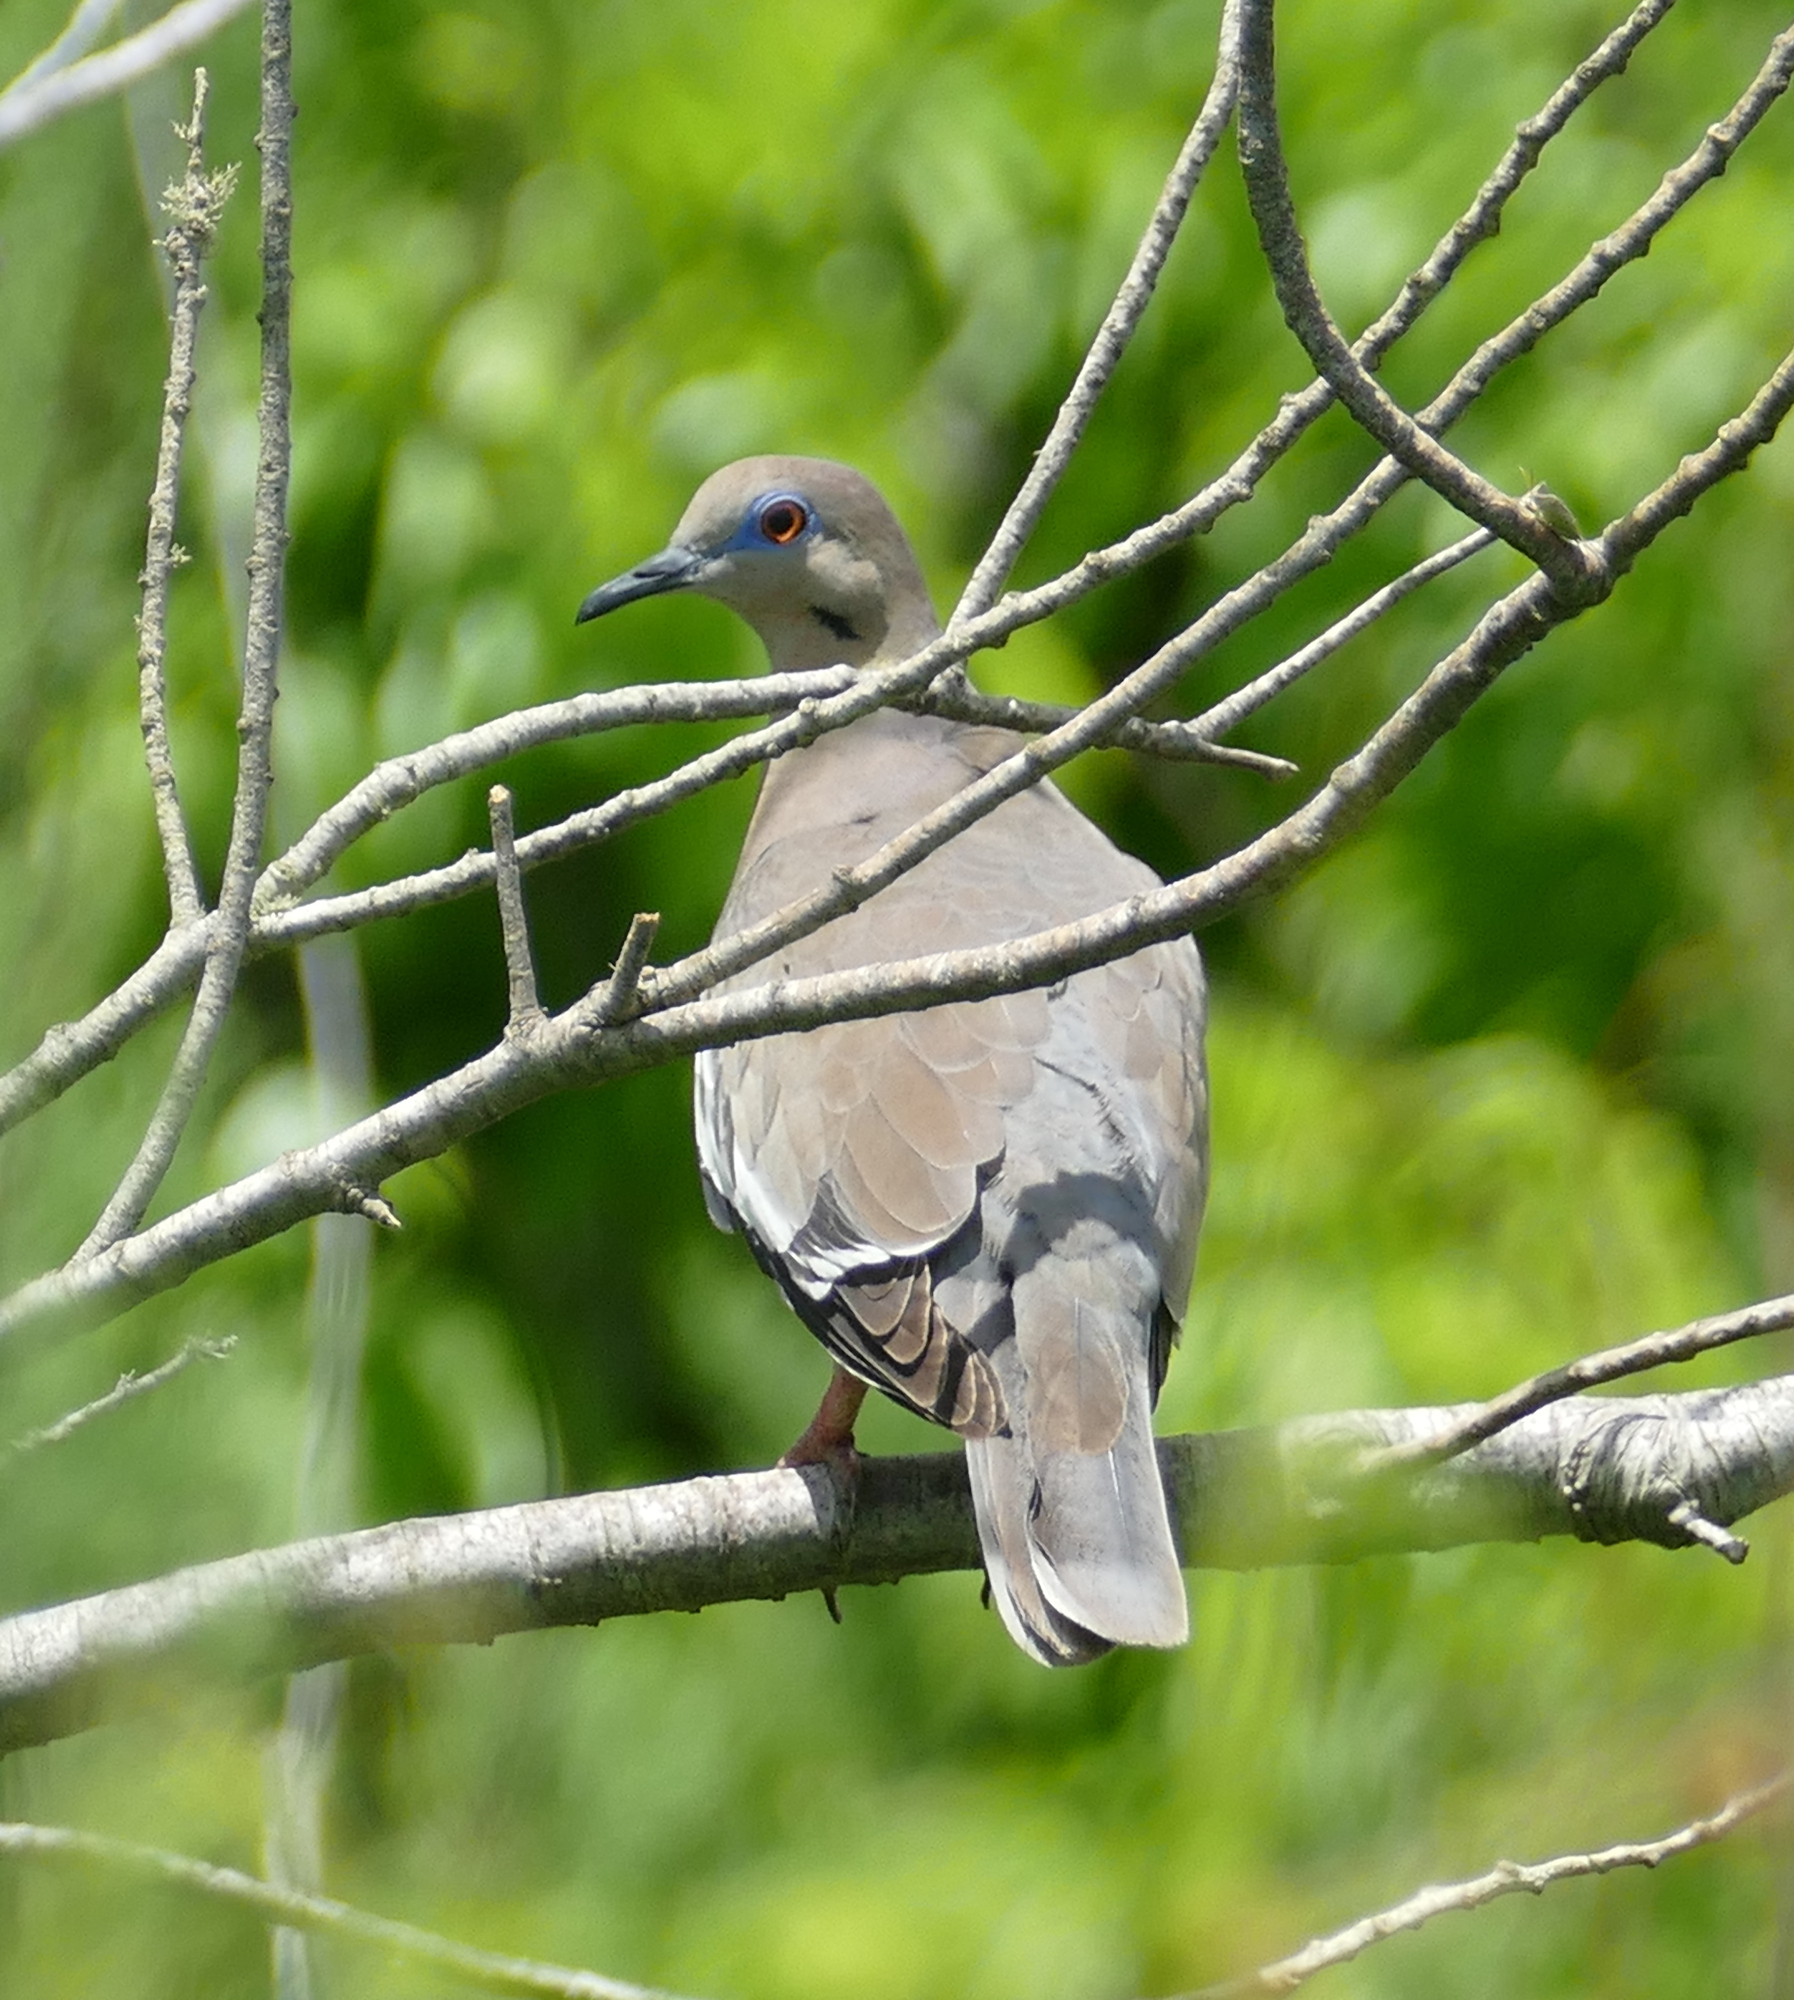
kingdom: Animalia
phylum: Chordata
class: Aves
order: Columbiformes
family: Columbidae
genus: Zenaida
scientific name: Zenaida asiatica
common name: White-winged dove
